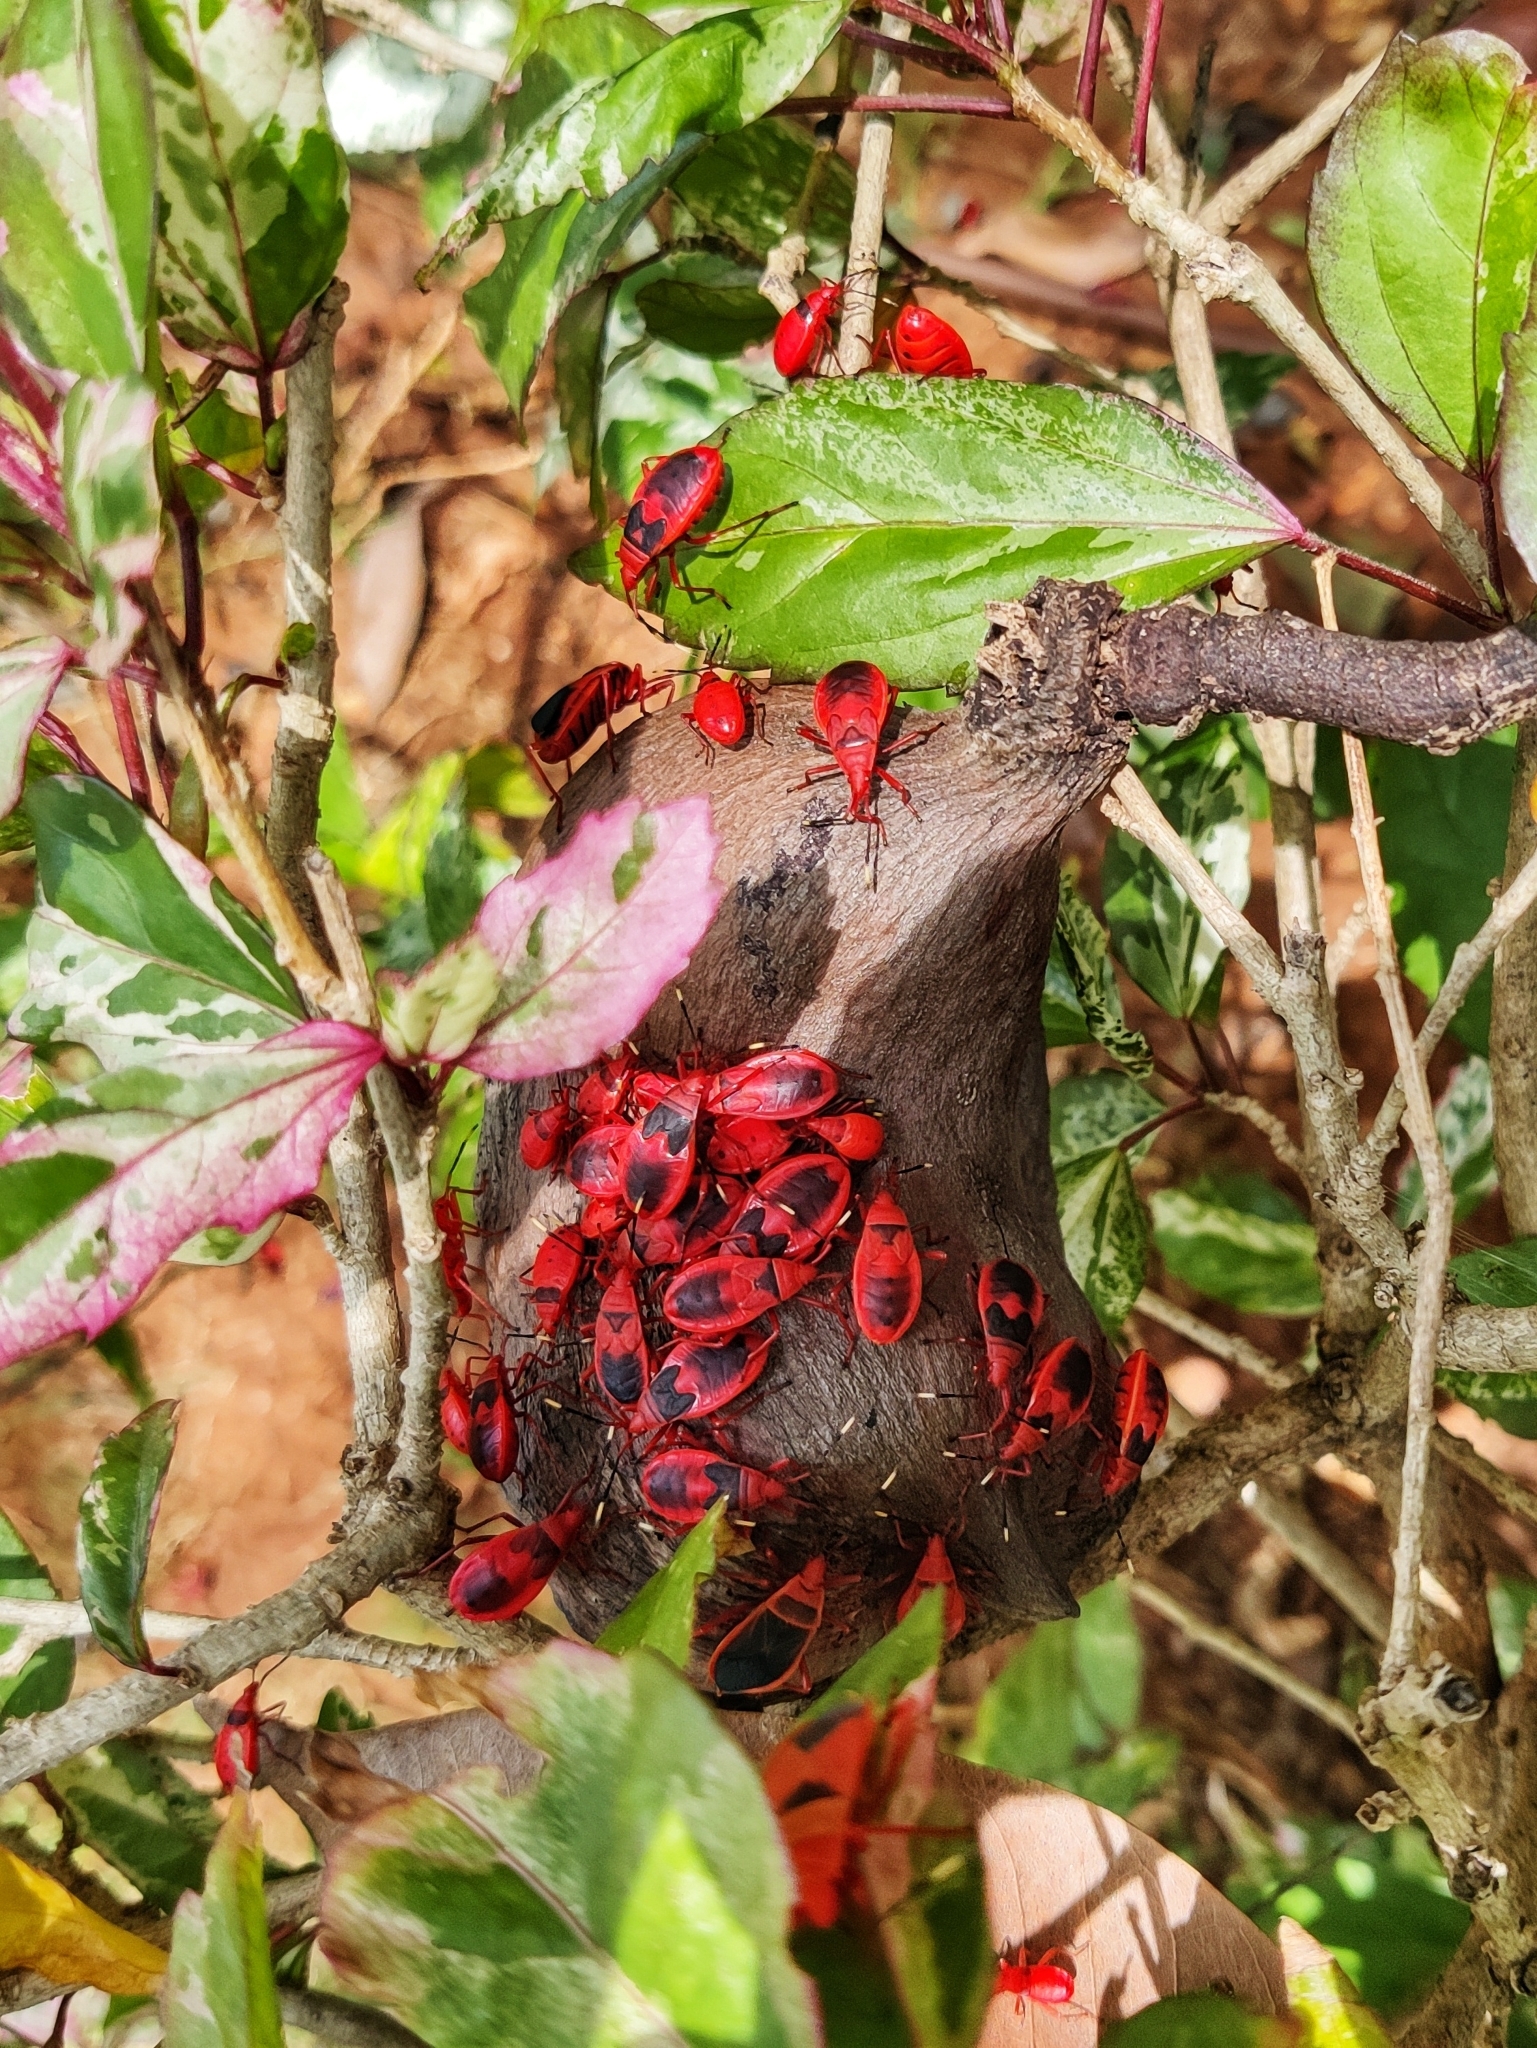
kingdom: Animalia
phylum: Arthropoda
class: Insecta
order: Hemiptera
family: Pyrrhocoridae
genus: Probergrothius
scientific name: Probergrothius
